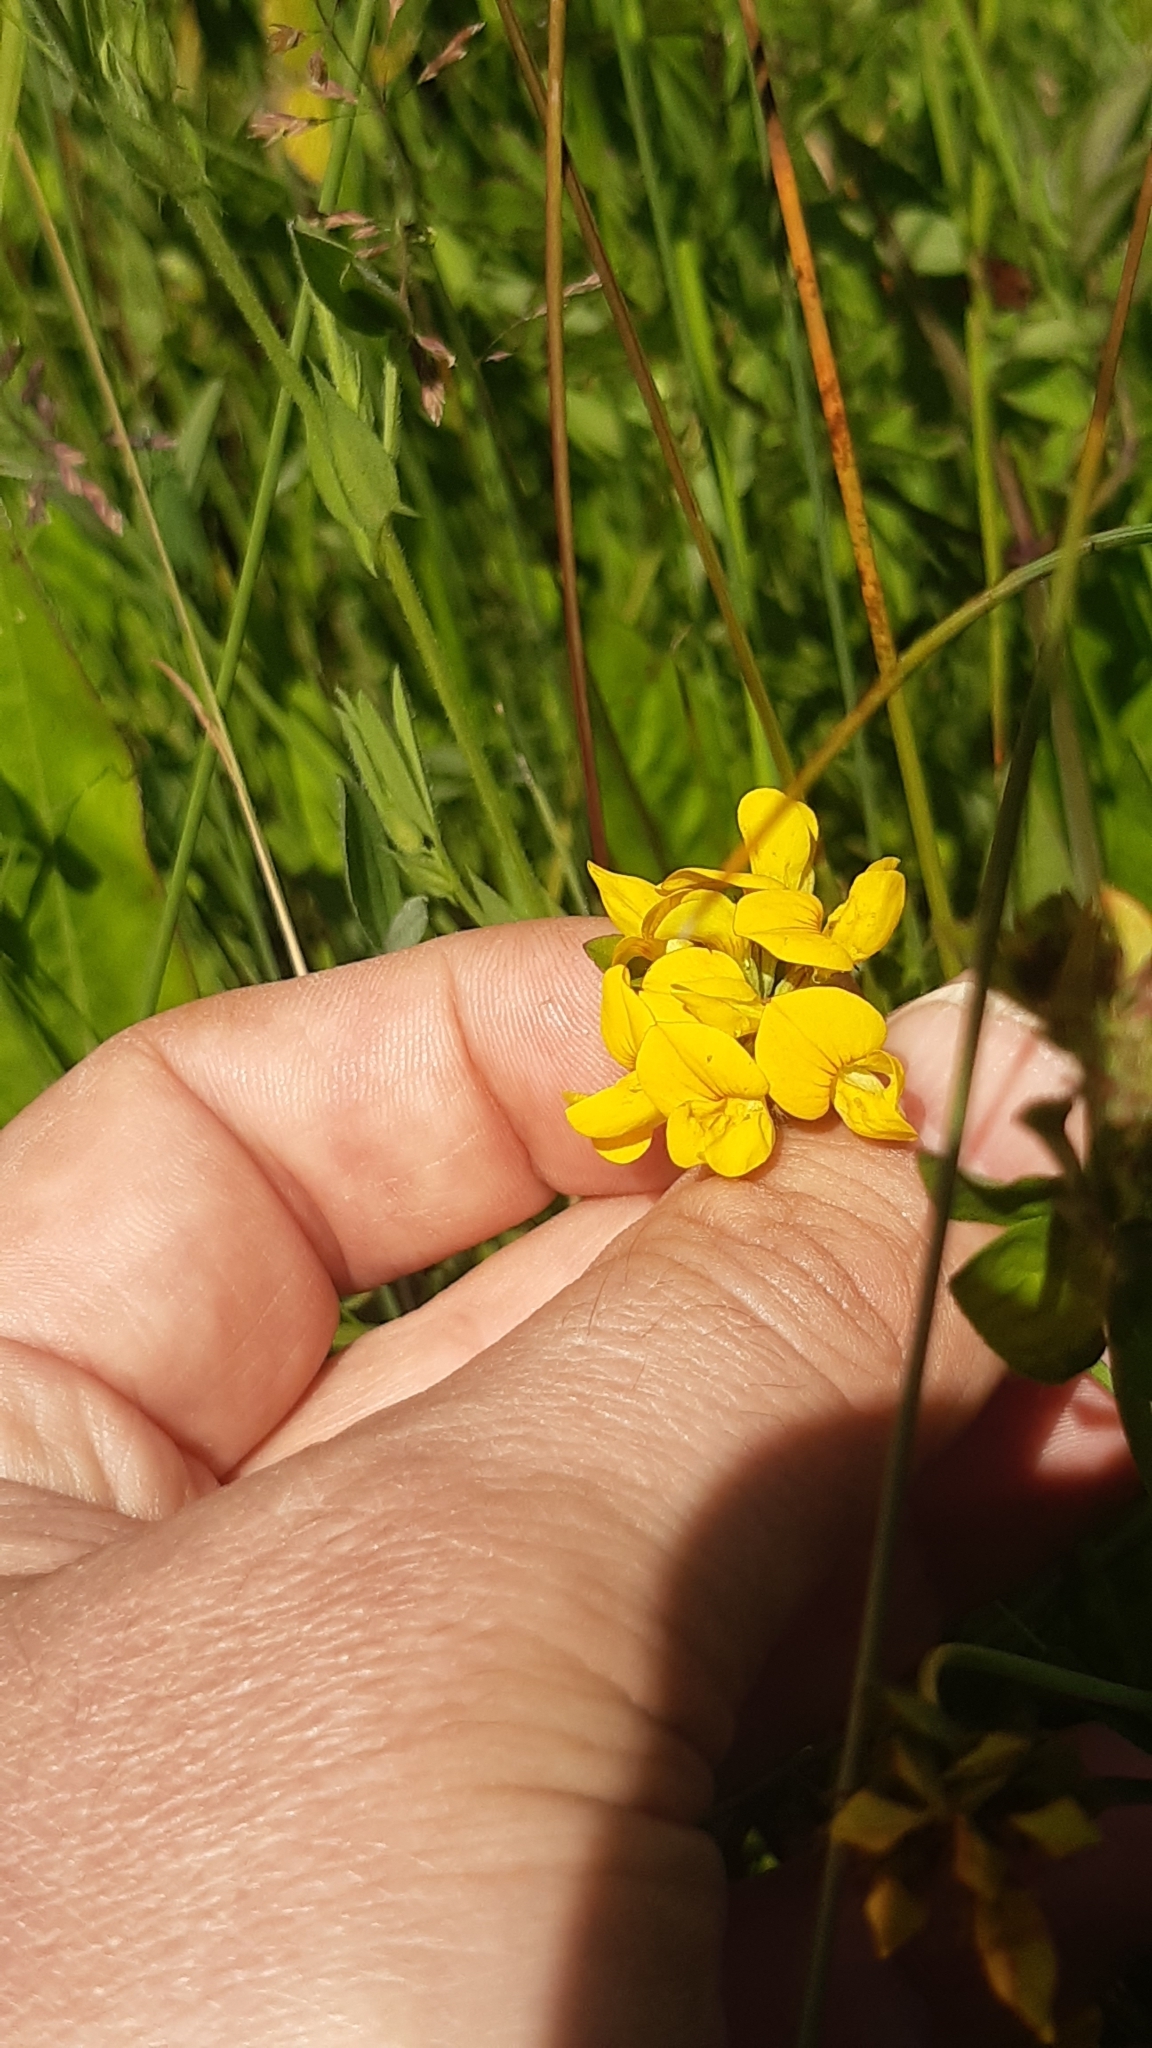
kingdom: Plantae
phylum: Tracheophyta
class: Magnoliopsida
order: Fabales
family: Fabaceae
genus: Lotus
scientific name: Lotus pedunculatus
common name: Greater birdsfoot-trefoil
